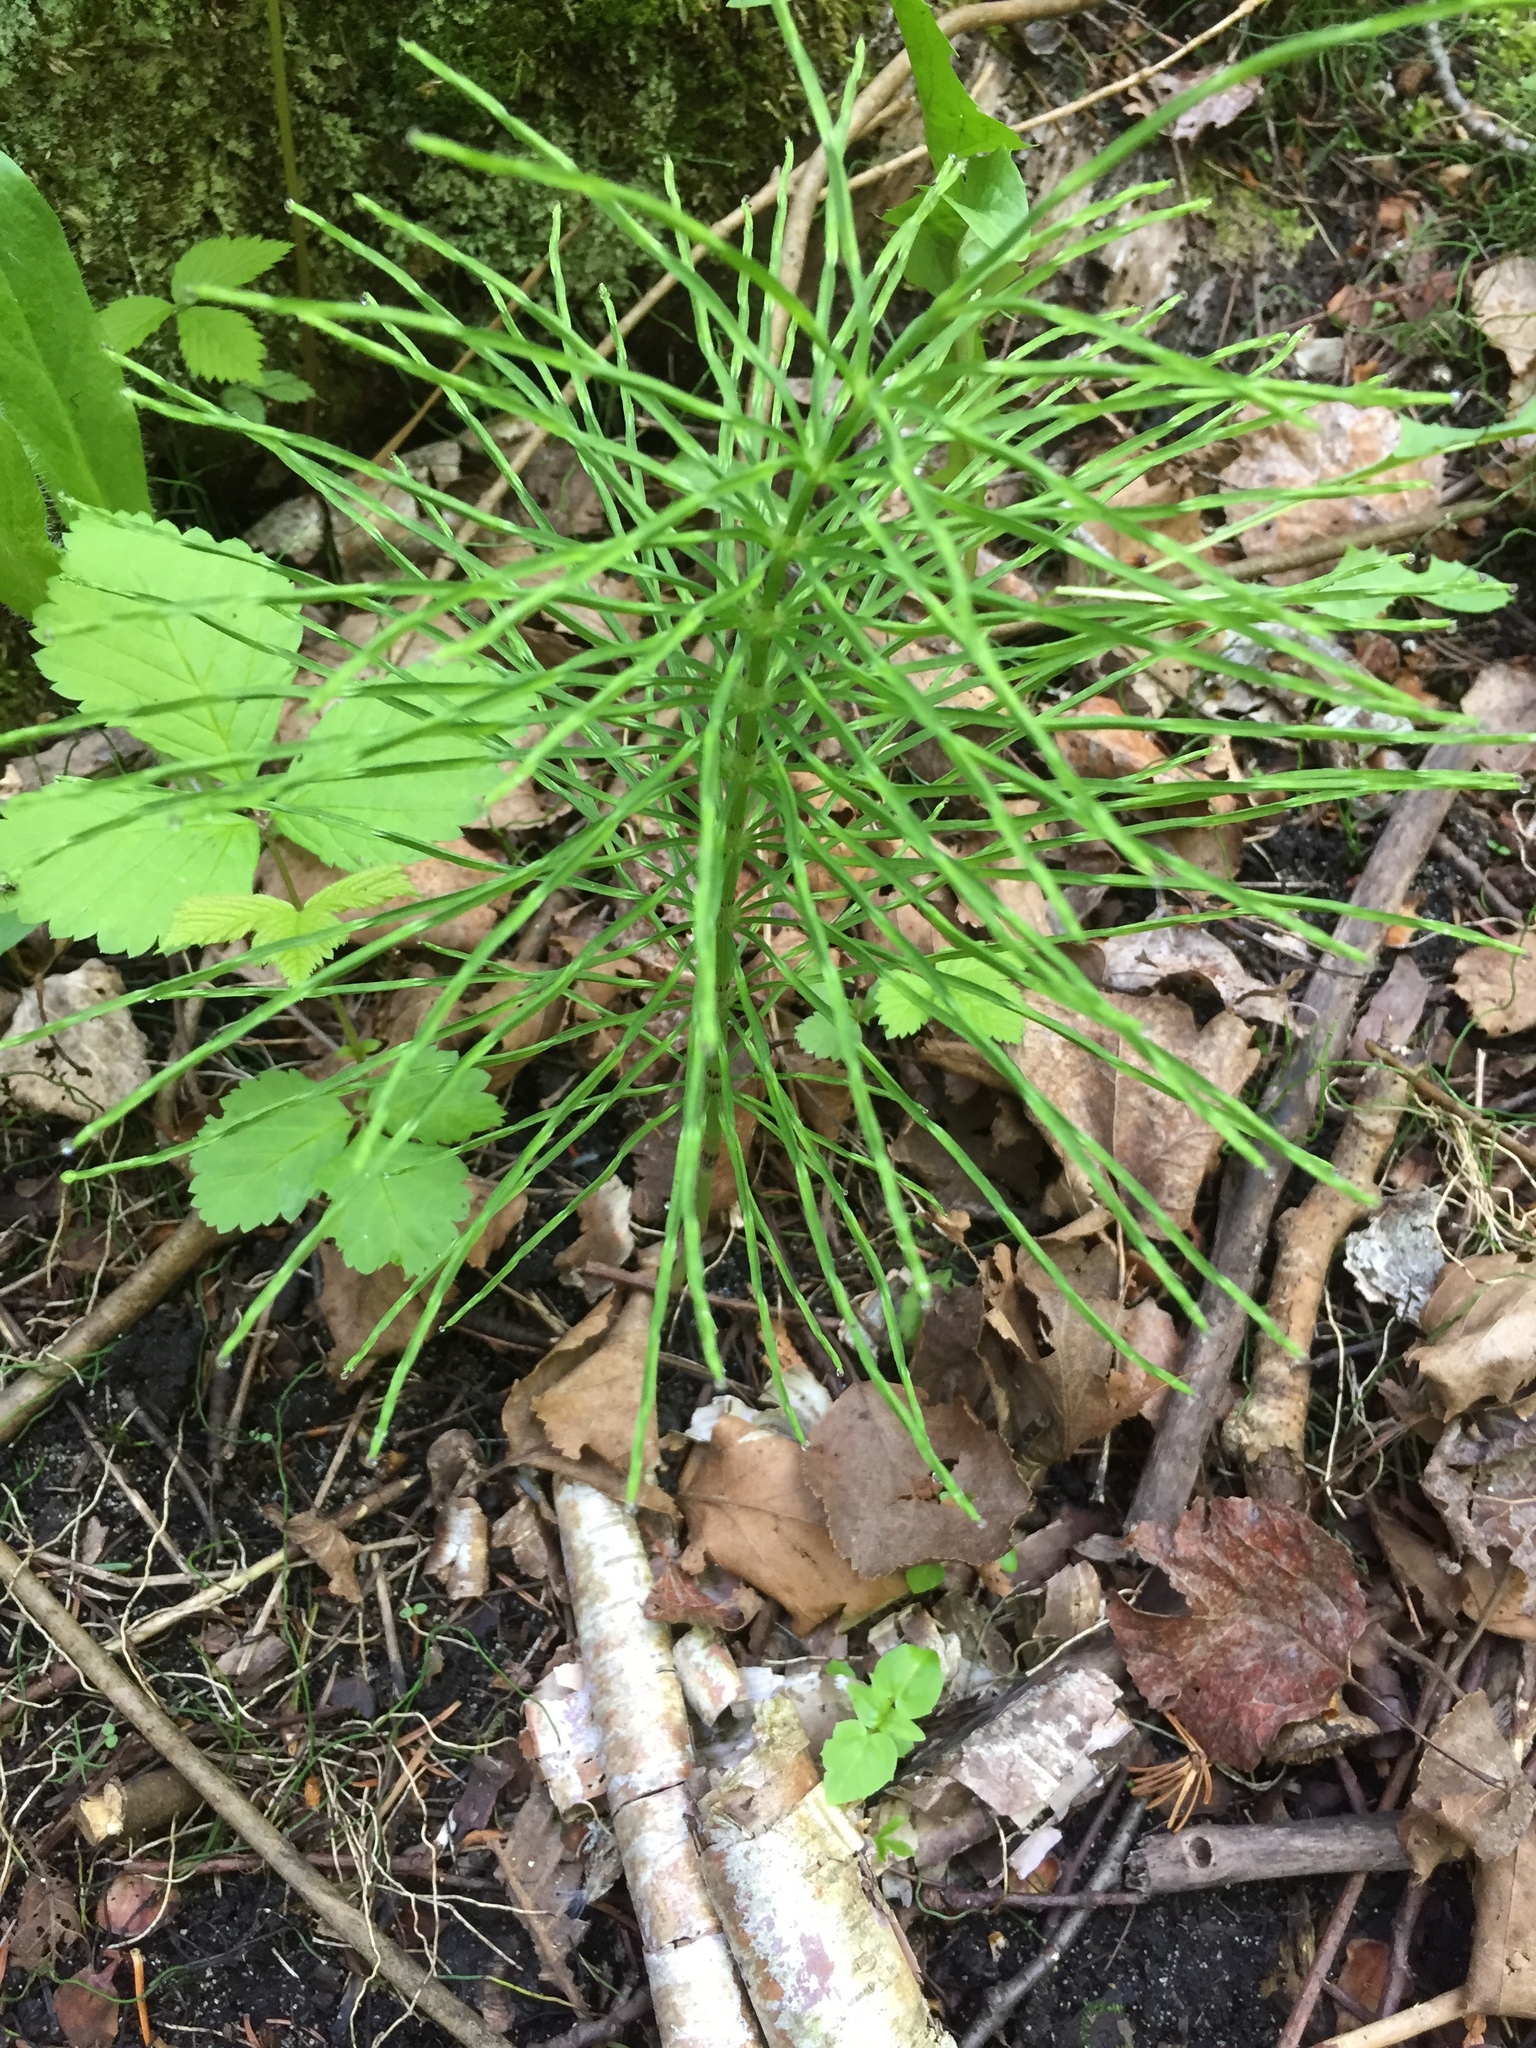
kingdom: Plantae
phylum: Tracheophyta
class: Polypodiopsida
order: Equisetales
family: Equisetaceae
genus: Equisetum
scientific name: Equisetum arvense
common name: Field horsetail
